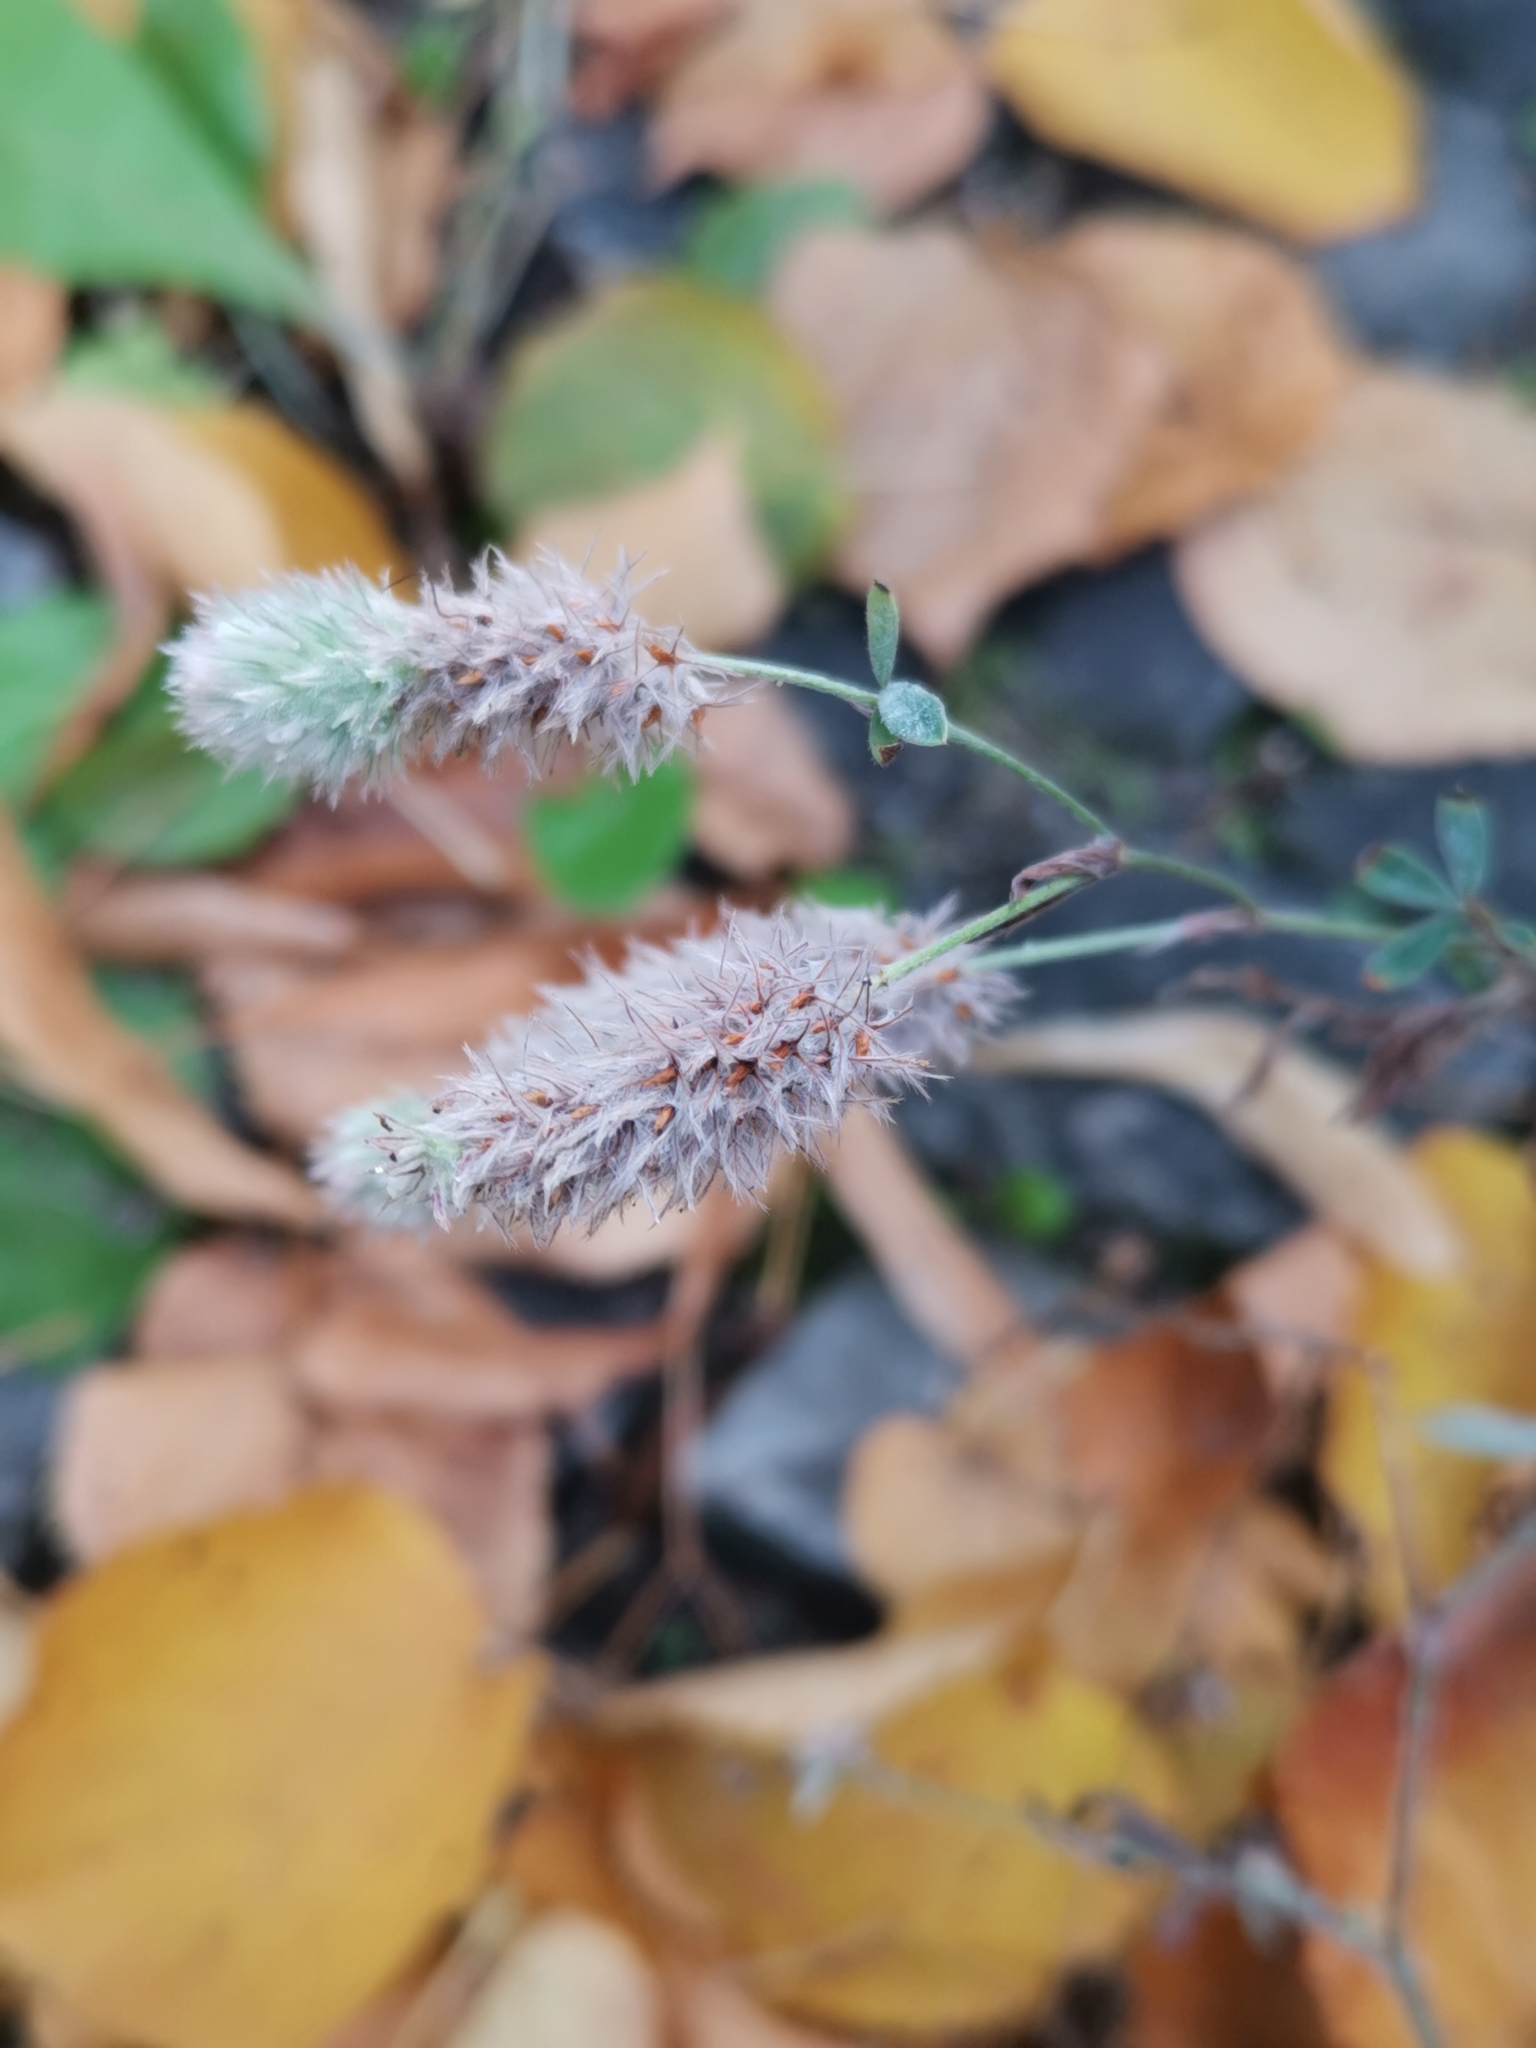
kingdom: Plantae
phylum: Tracheophyta
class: Magnoliopsida
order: Fabales
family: Fabaceae
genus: Trifolium
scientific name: Trifolium arvense
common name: Hare's-foot clover
